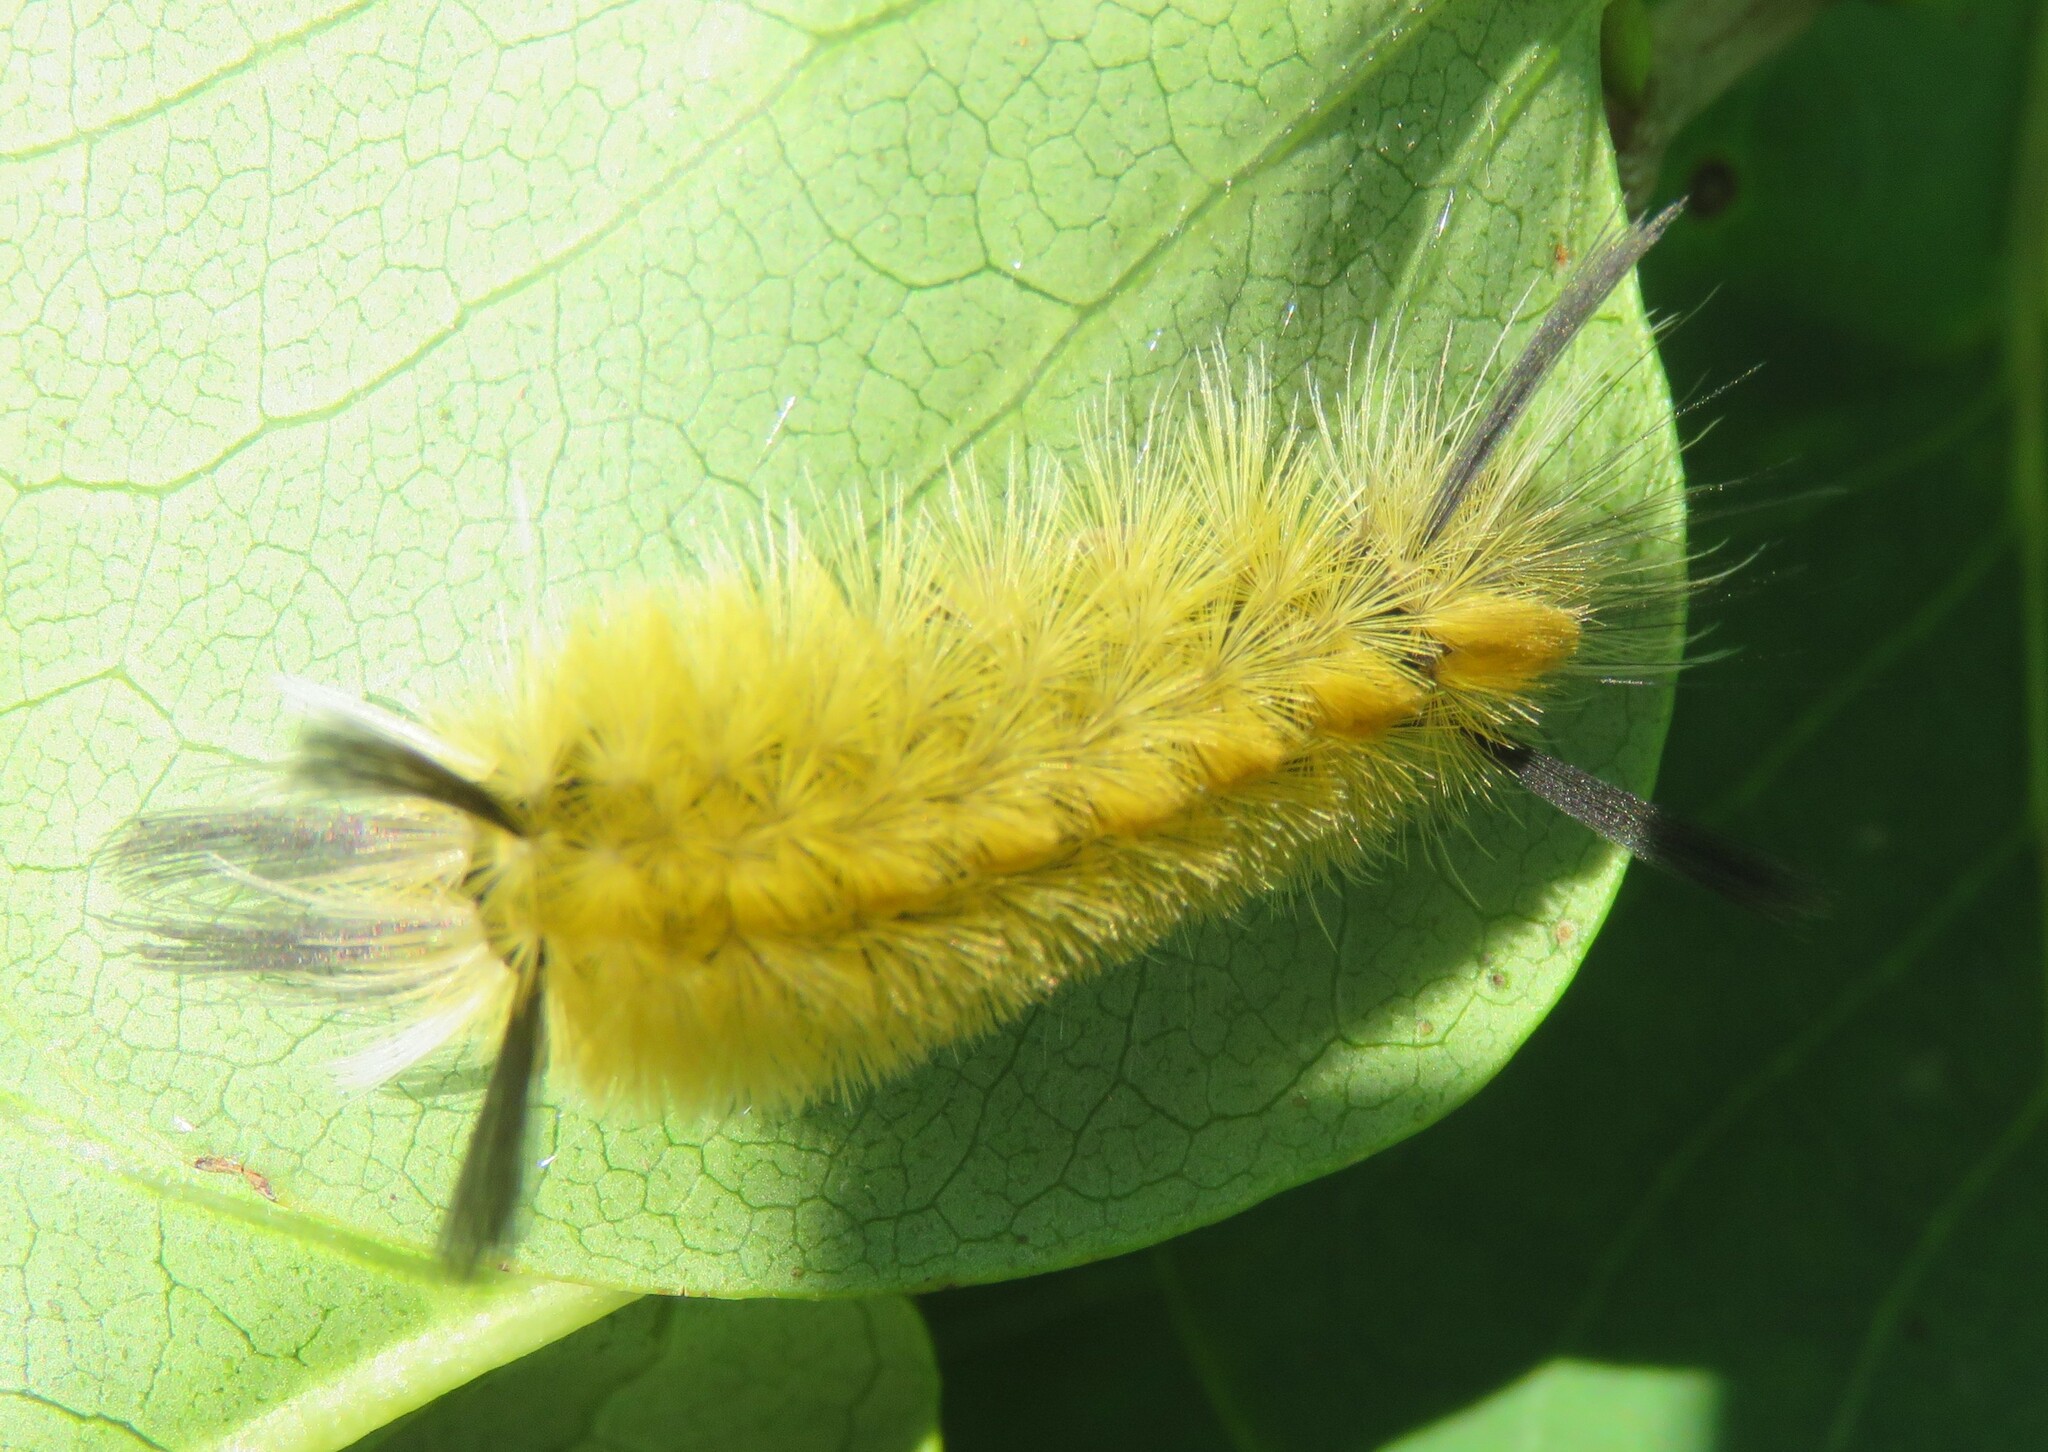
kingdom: Animalia
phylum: Arthropoda
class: Insecta
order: Lepidoptera
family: Erebidae
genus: Halysidota
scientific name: Halysidota tessellaris
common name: Banded tussock moth
